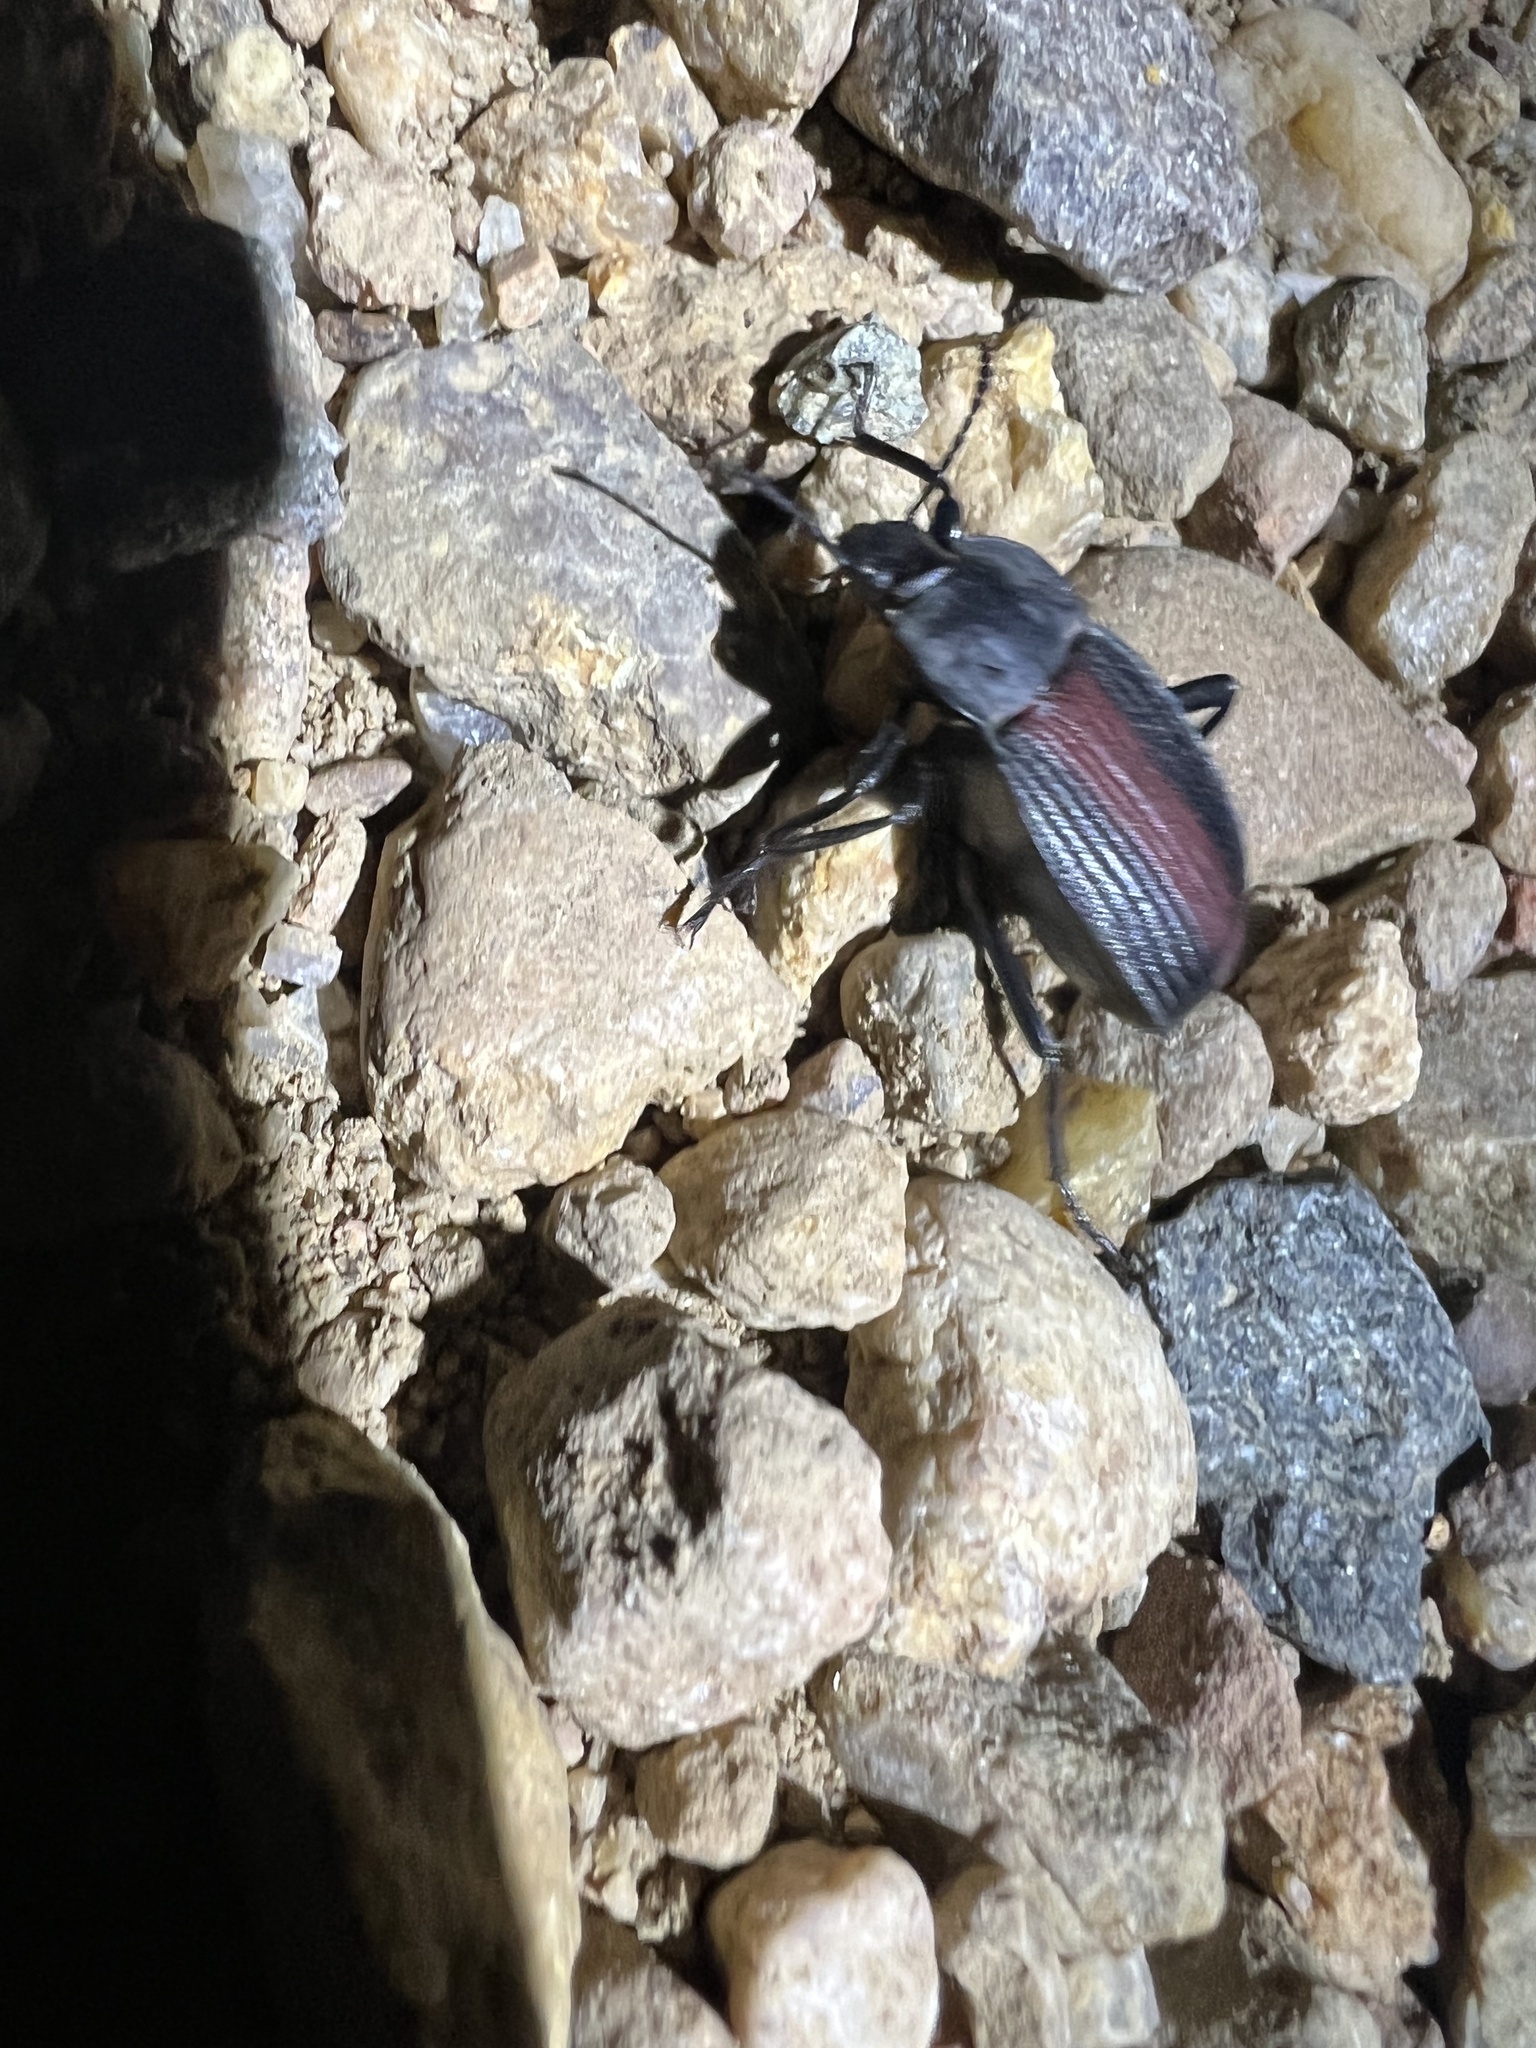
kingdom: Animalia
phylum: Arthropoda
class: Insecta
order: Coleoptera
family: Tenebrionidae
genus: Eleodes
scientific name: Eleodes suturalis
